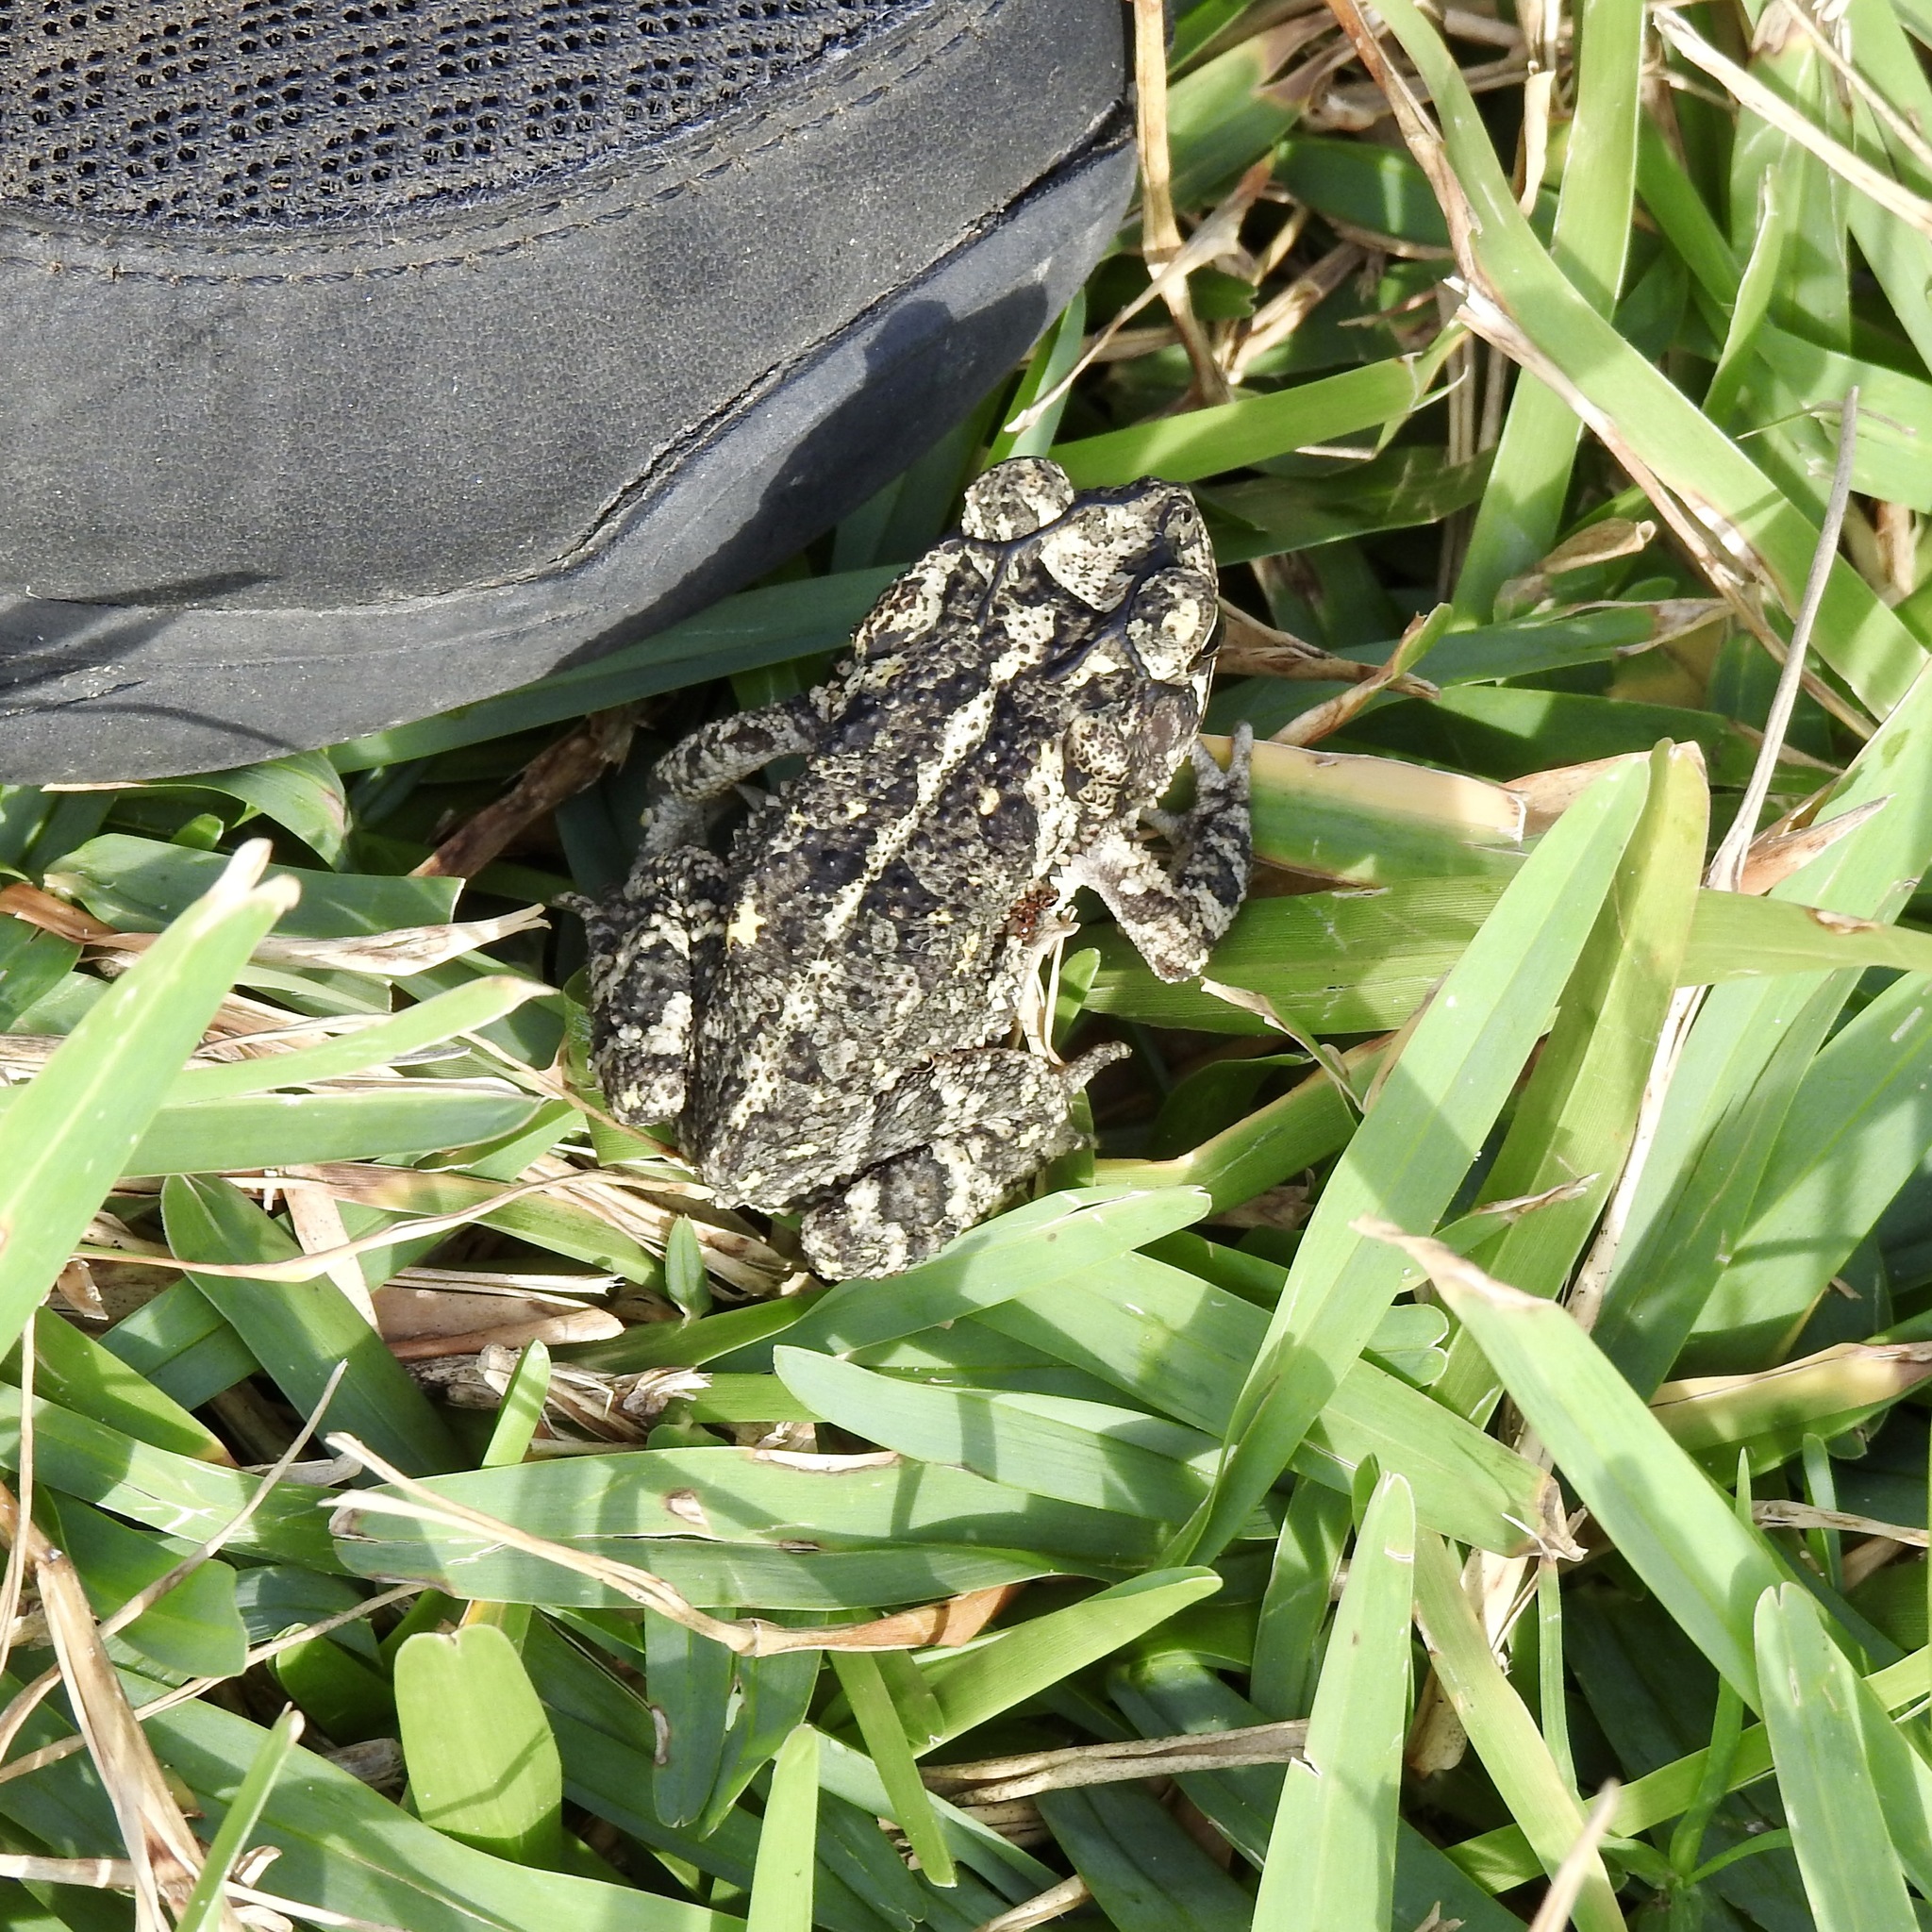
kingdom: Animalia
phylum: Chordata
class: Amphibia
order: Anura
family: Bufonidae
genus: Incilius
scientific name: Incilius nebulifer
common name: Gulf coast toad
